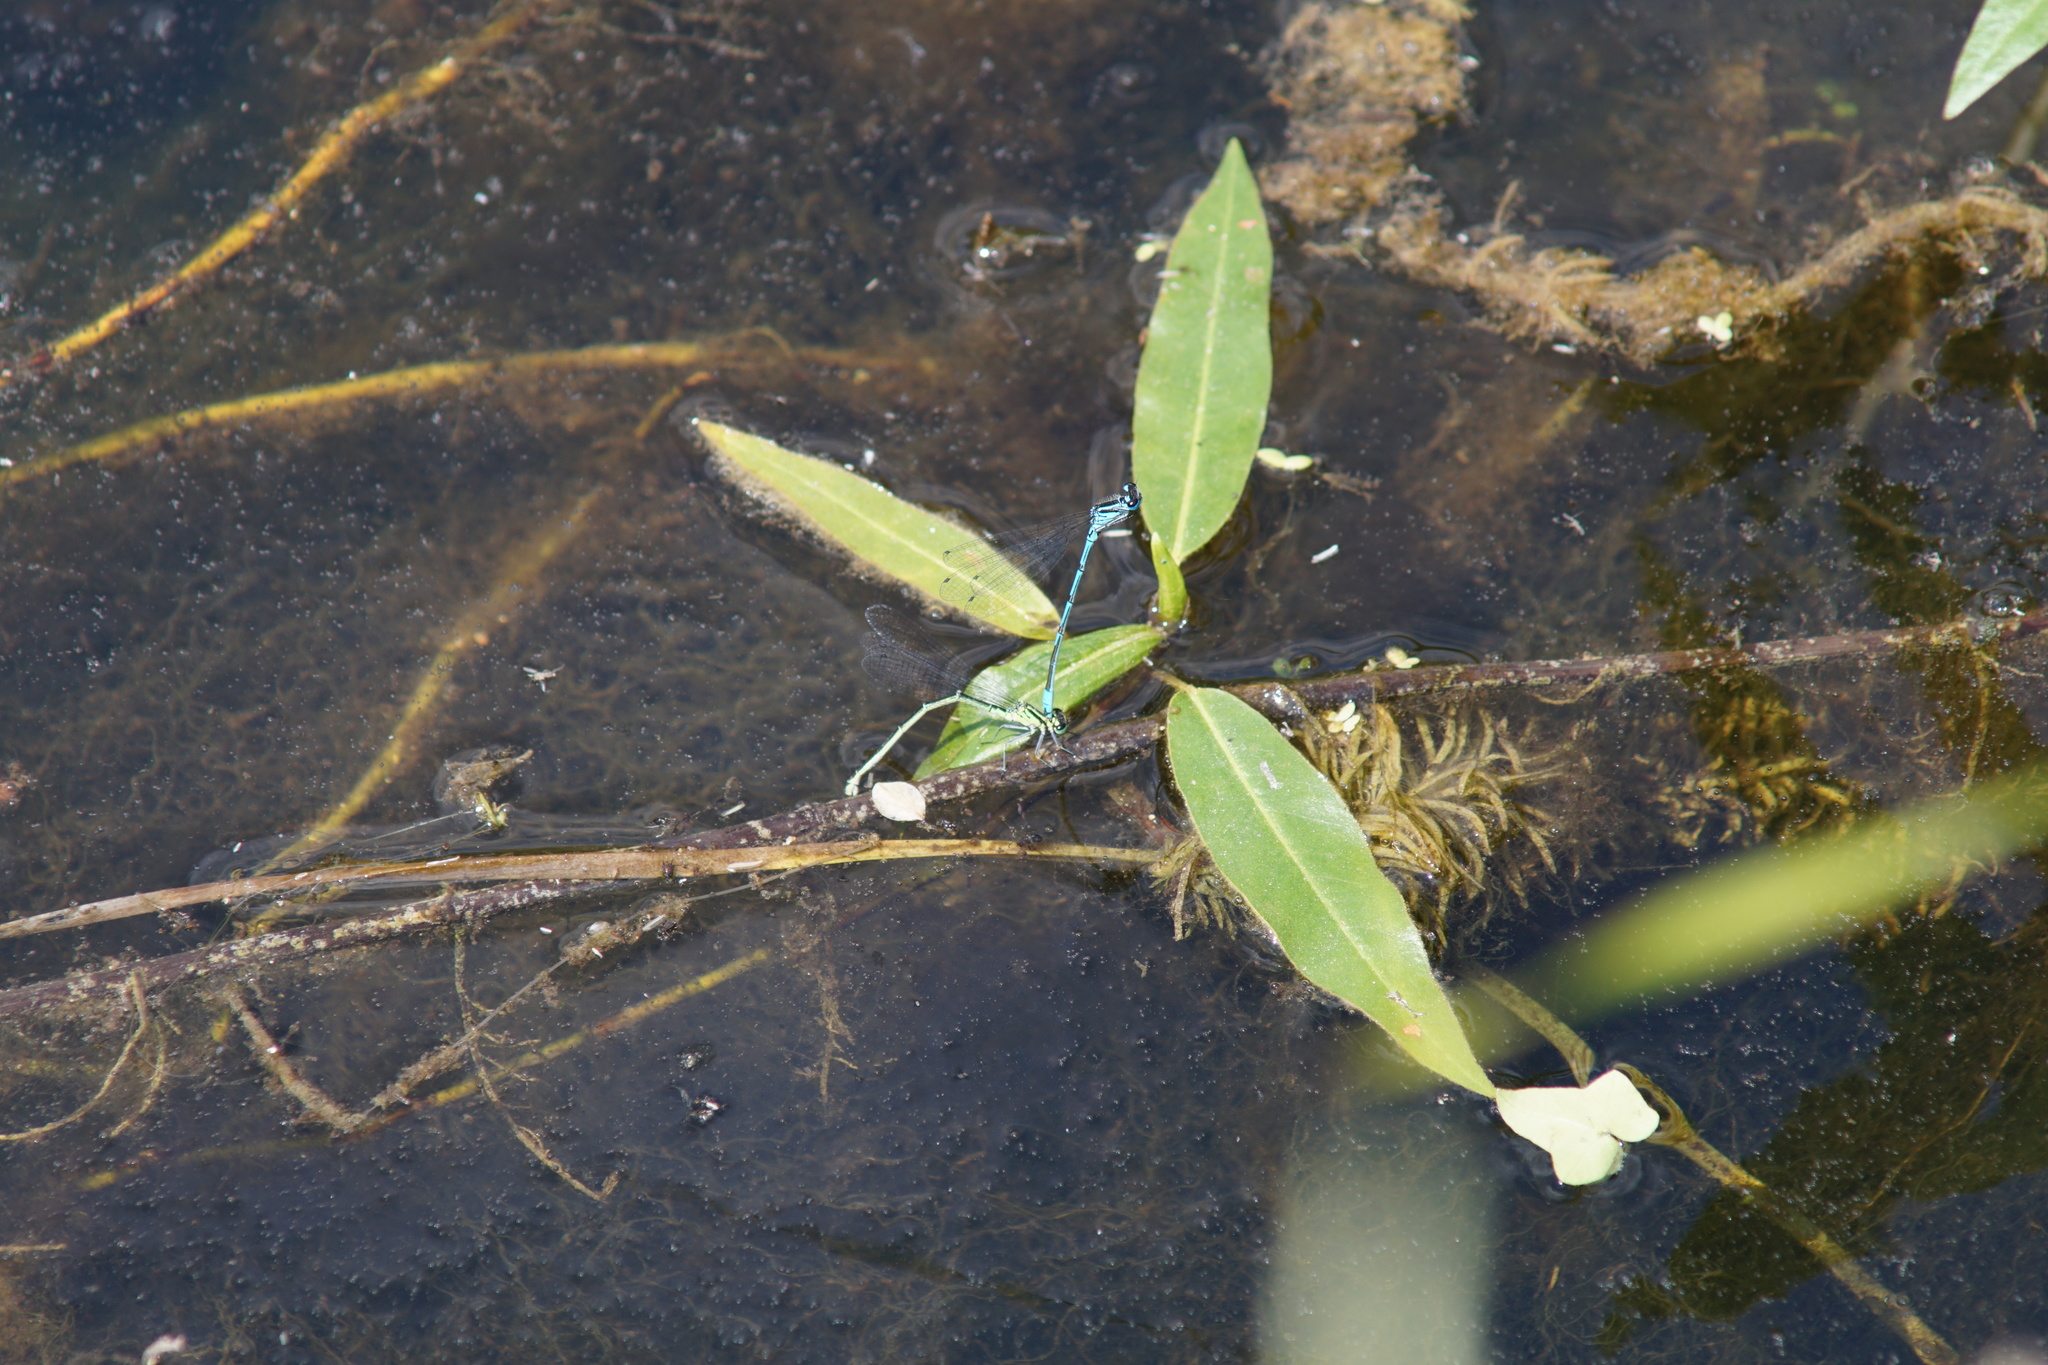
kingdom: Animalia
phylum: Arthropoda
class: Insecta
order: Odonata
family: Coenagrionidae
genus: Coenagrion
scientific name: Coenagrion puella
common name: Azure damselfly
